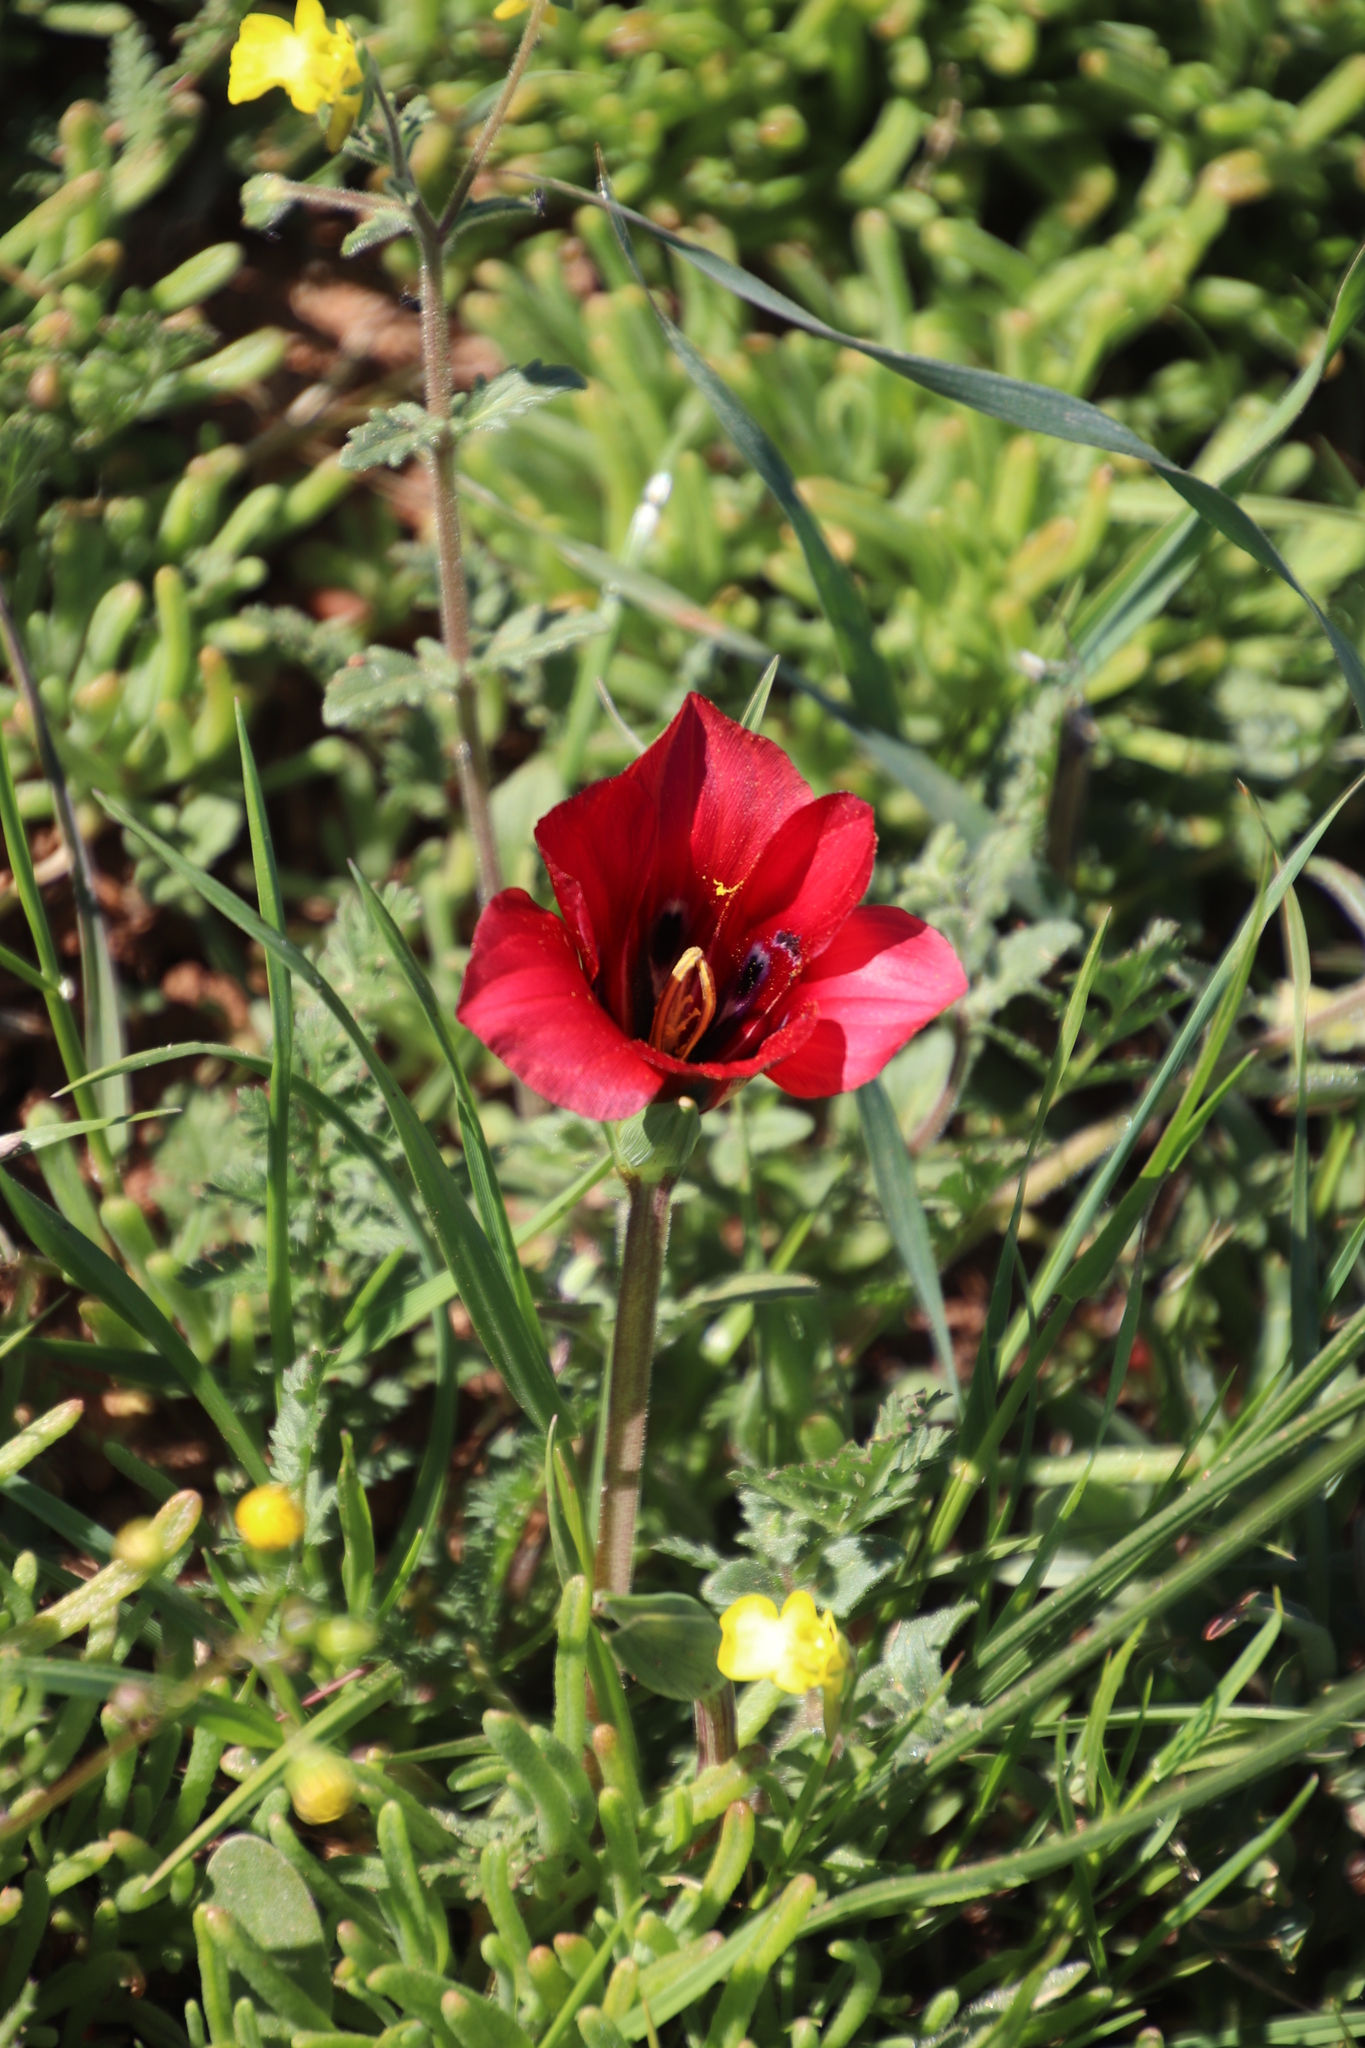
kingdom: Plantae
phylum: Tracheophyta
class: Liliopsida
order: Asparagales
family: Iridaceae
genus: Romulea
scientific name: Romulea sabulosa
